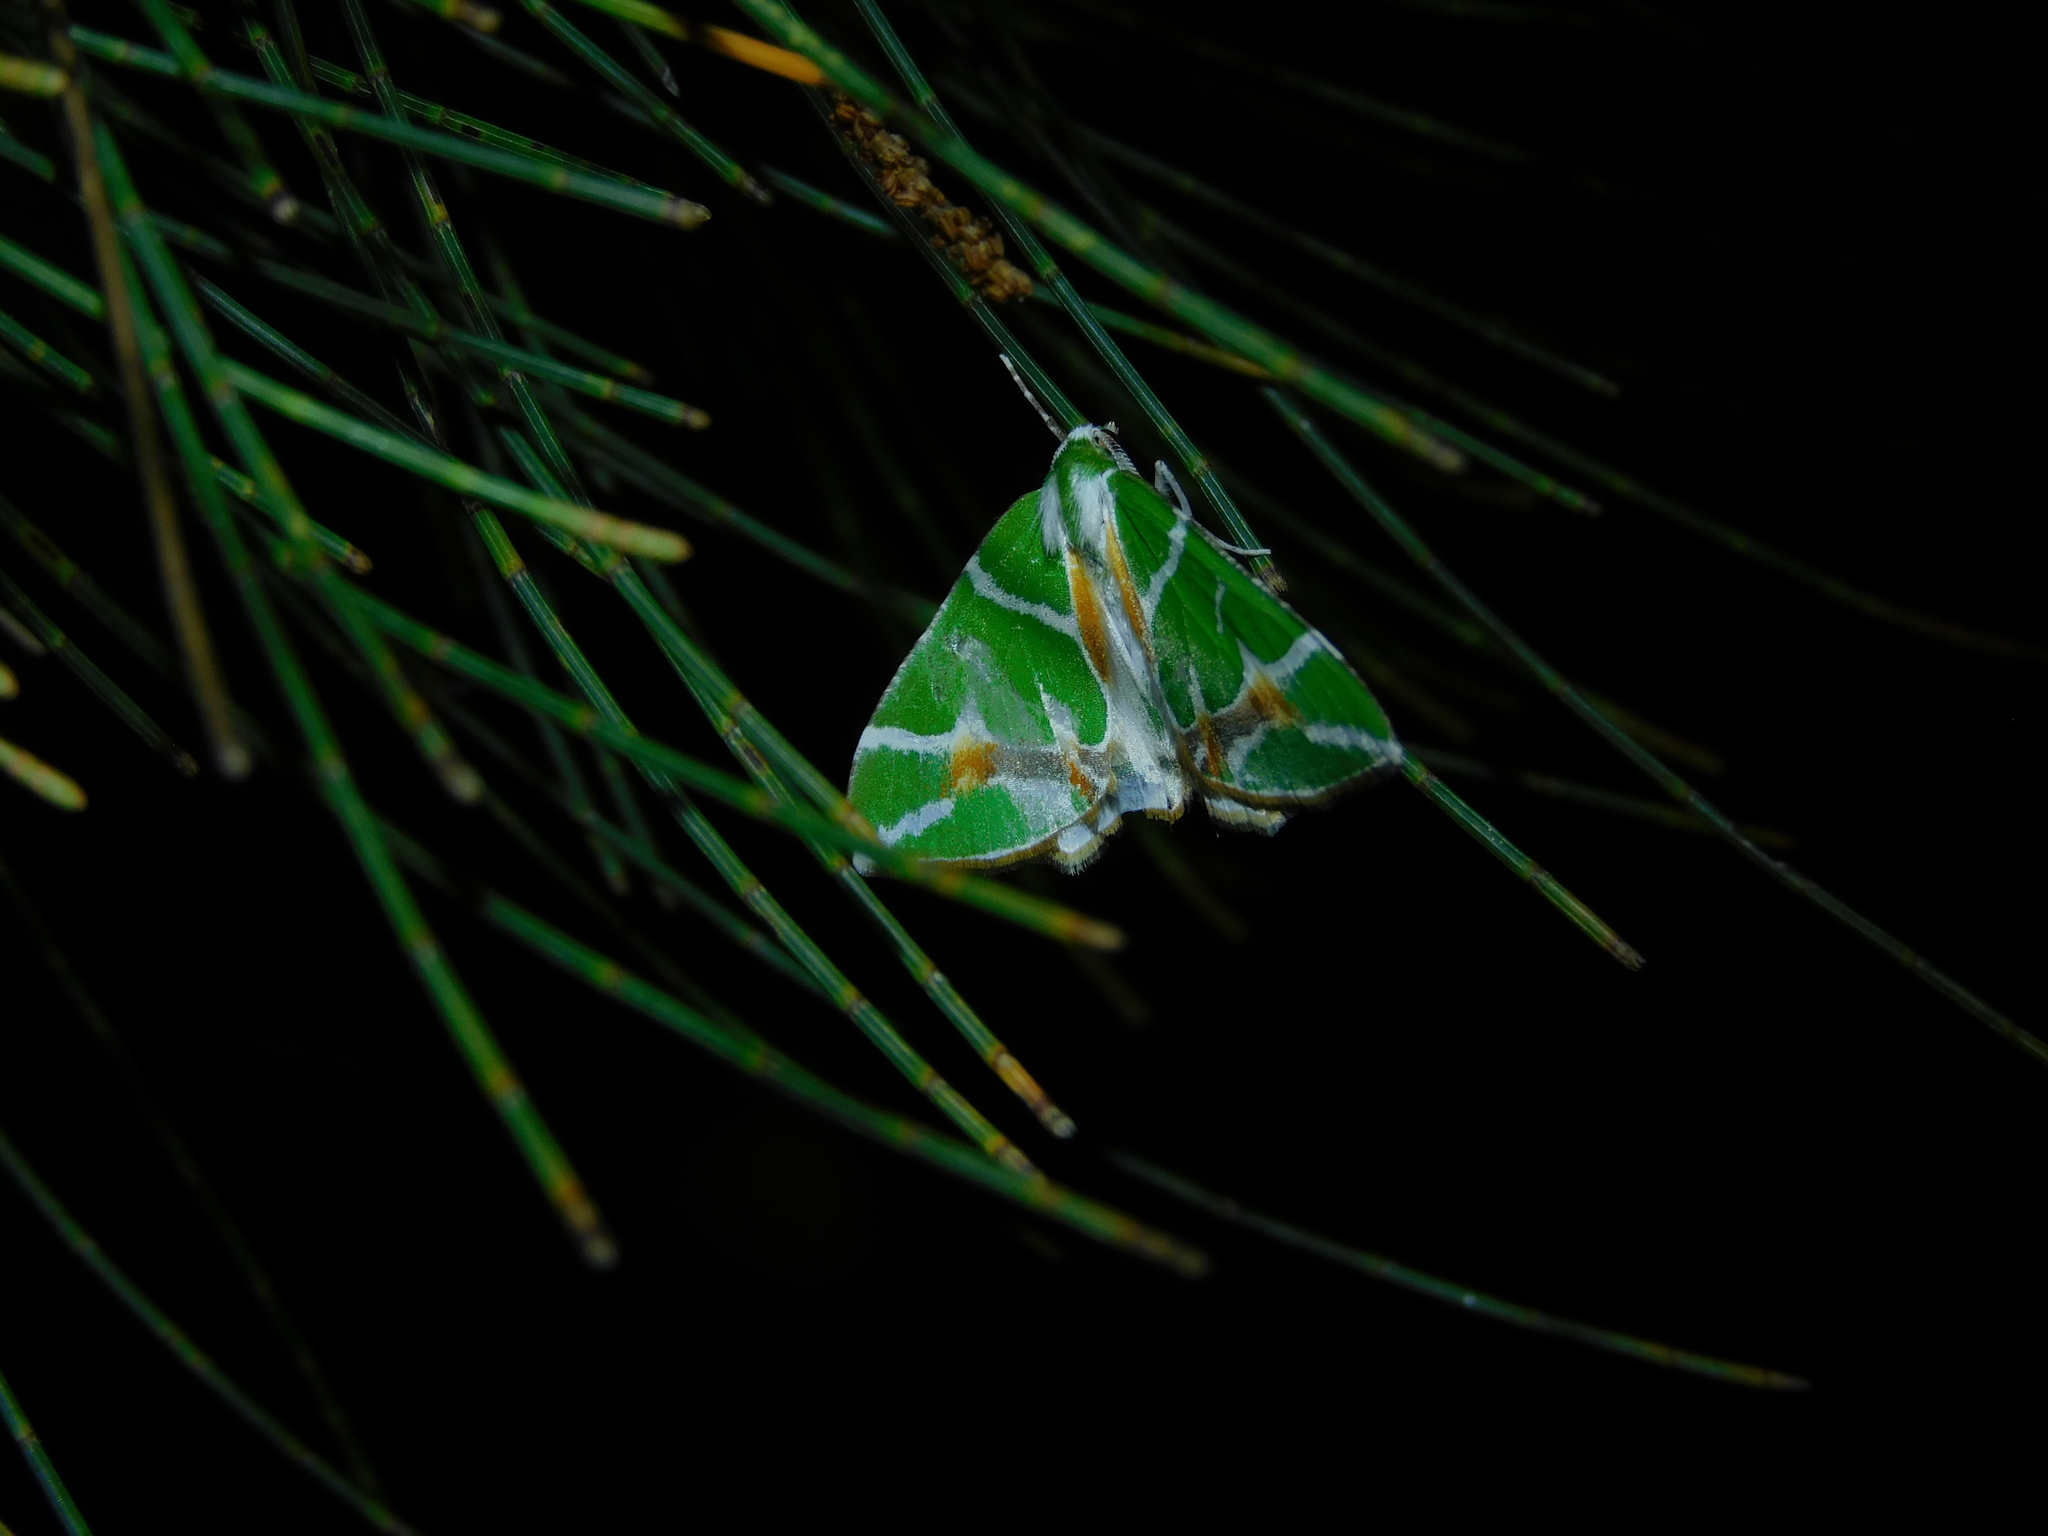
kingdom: Animalia
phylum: Arthropoda
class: Insecta
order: Lepidoptera
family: Geometridae
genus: Chlorodes
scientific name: Chlorodes boisduvalaria
